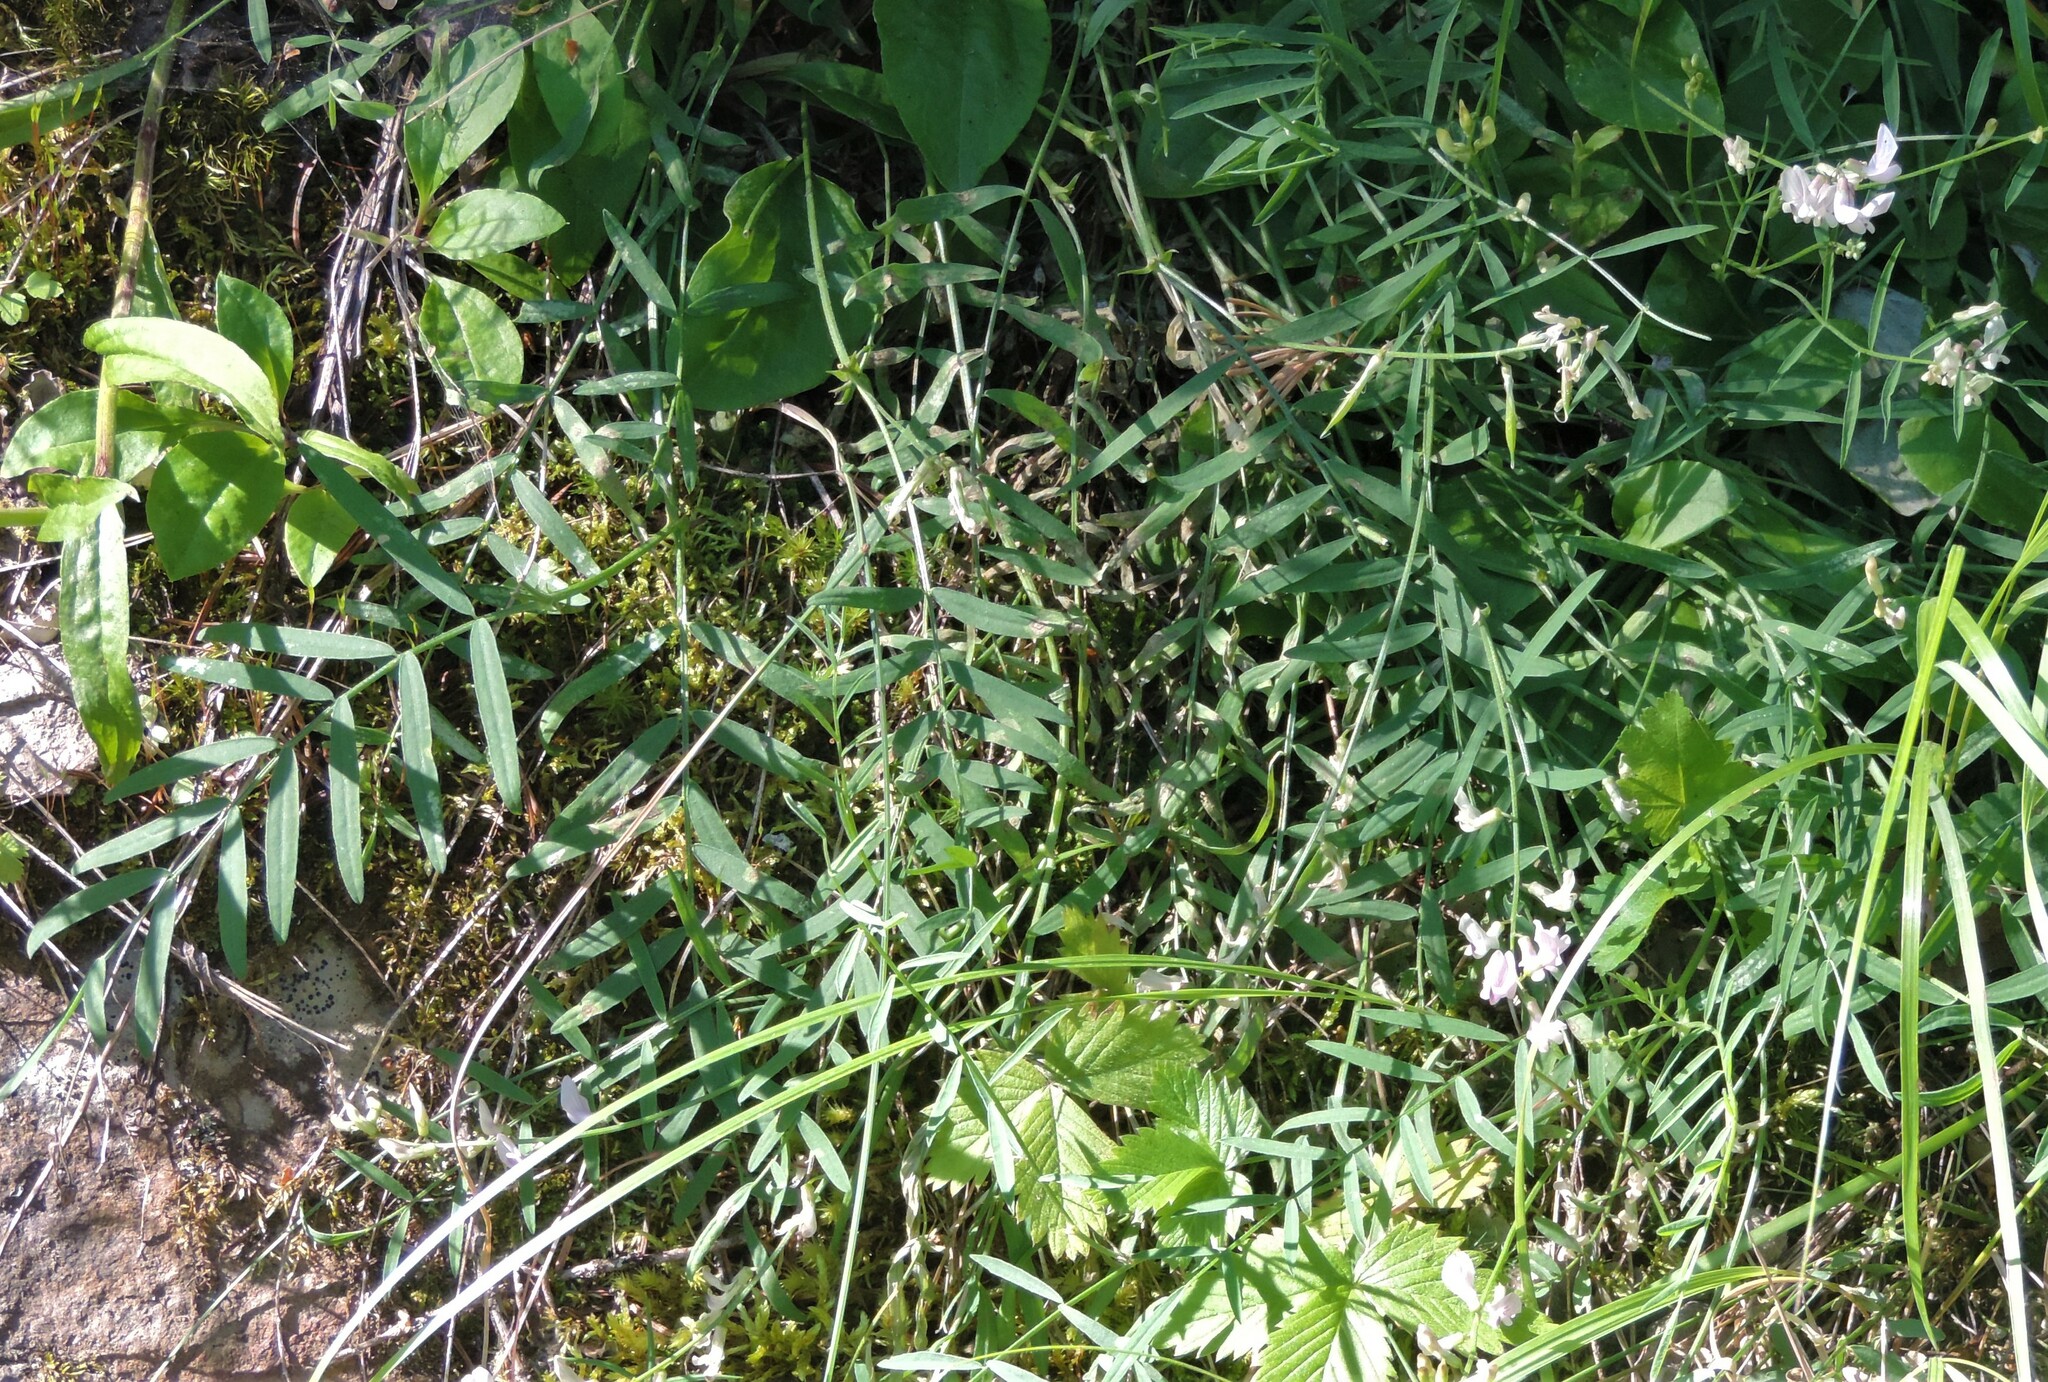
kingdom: Plantae
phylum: Tracheophyta
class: Magnoliopsida
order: Fabales
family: Fabaceae
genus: Astragalus
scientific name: Astragalus miser
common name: Timber milkvetch
